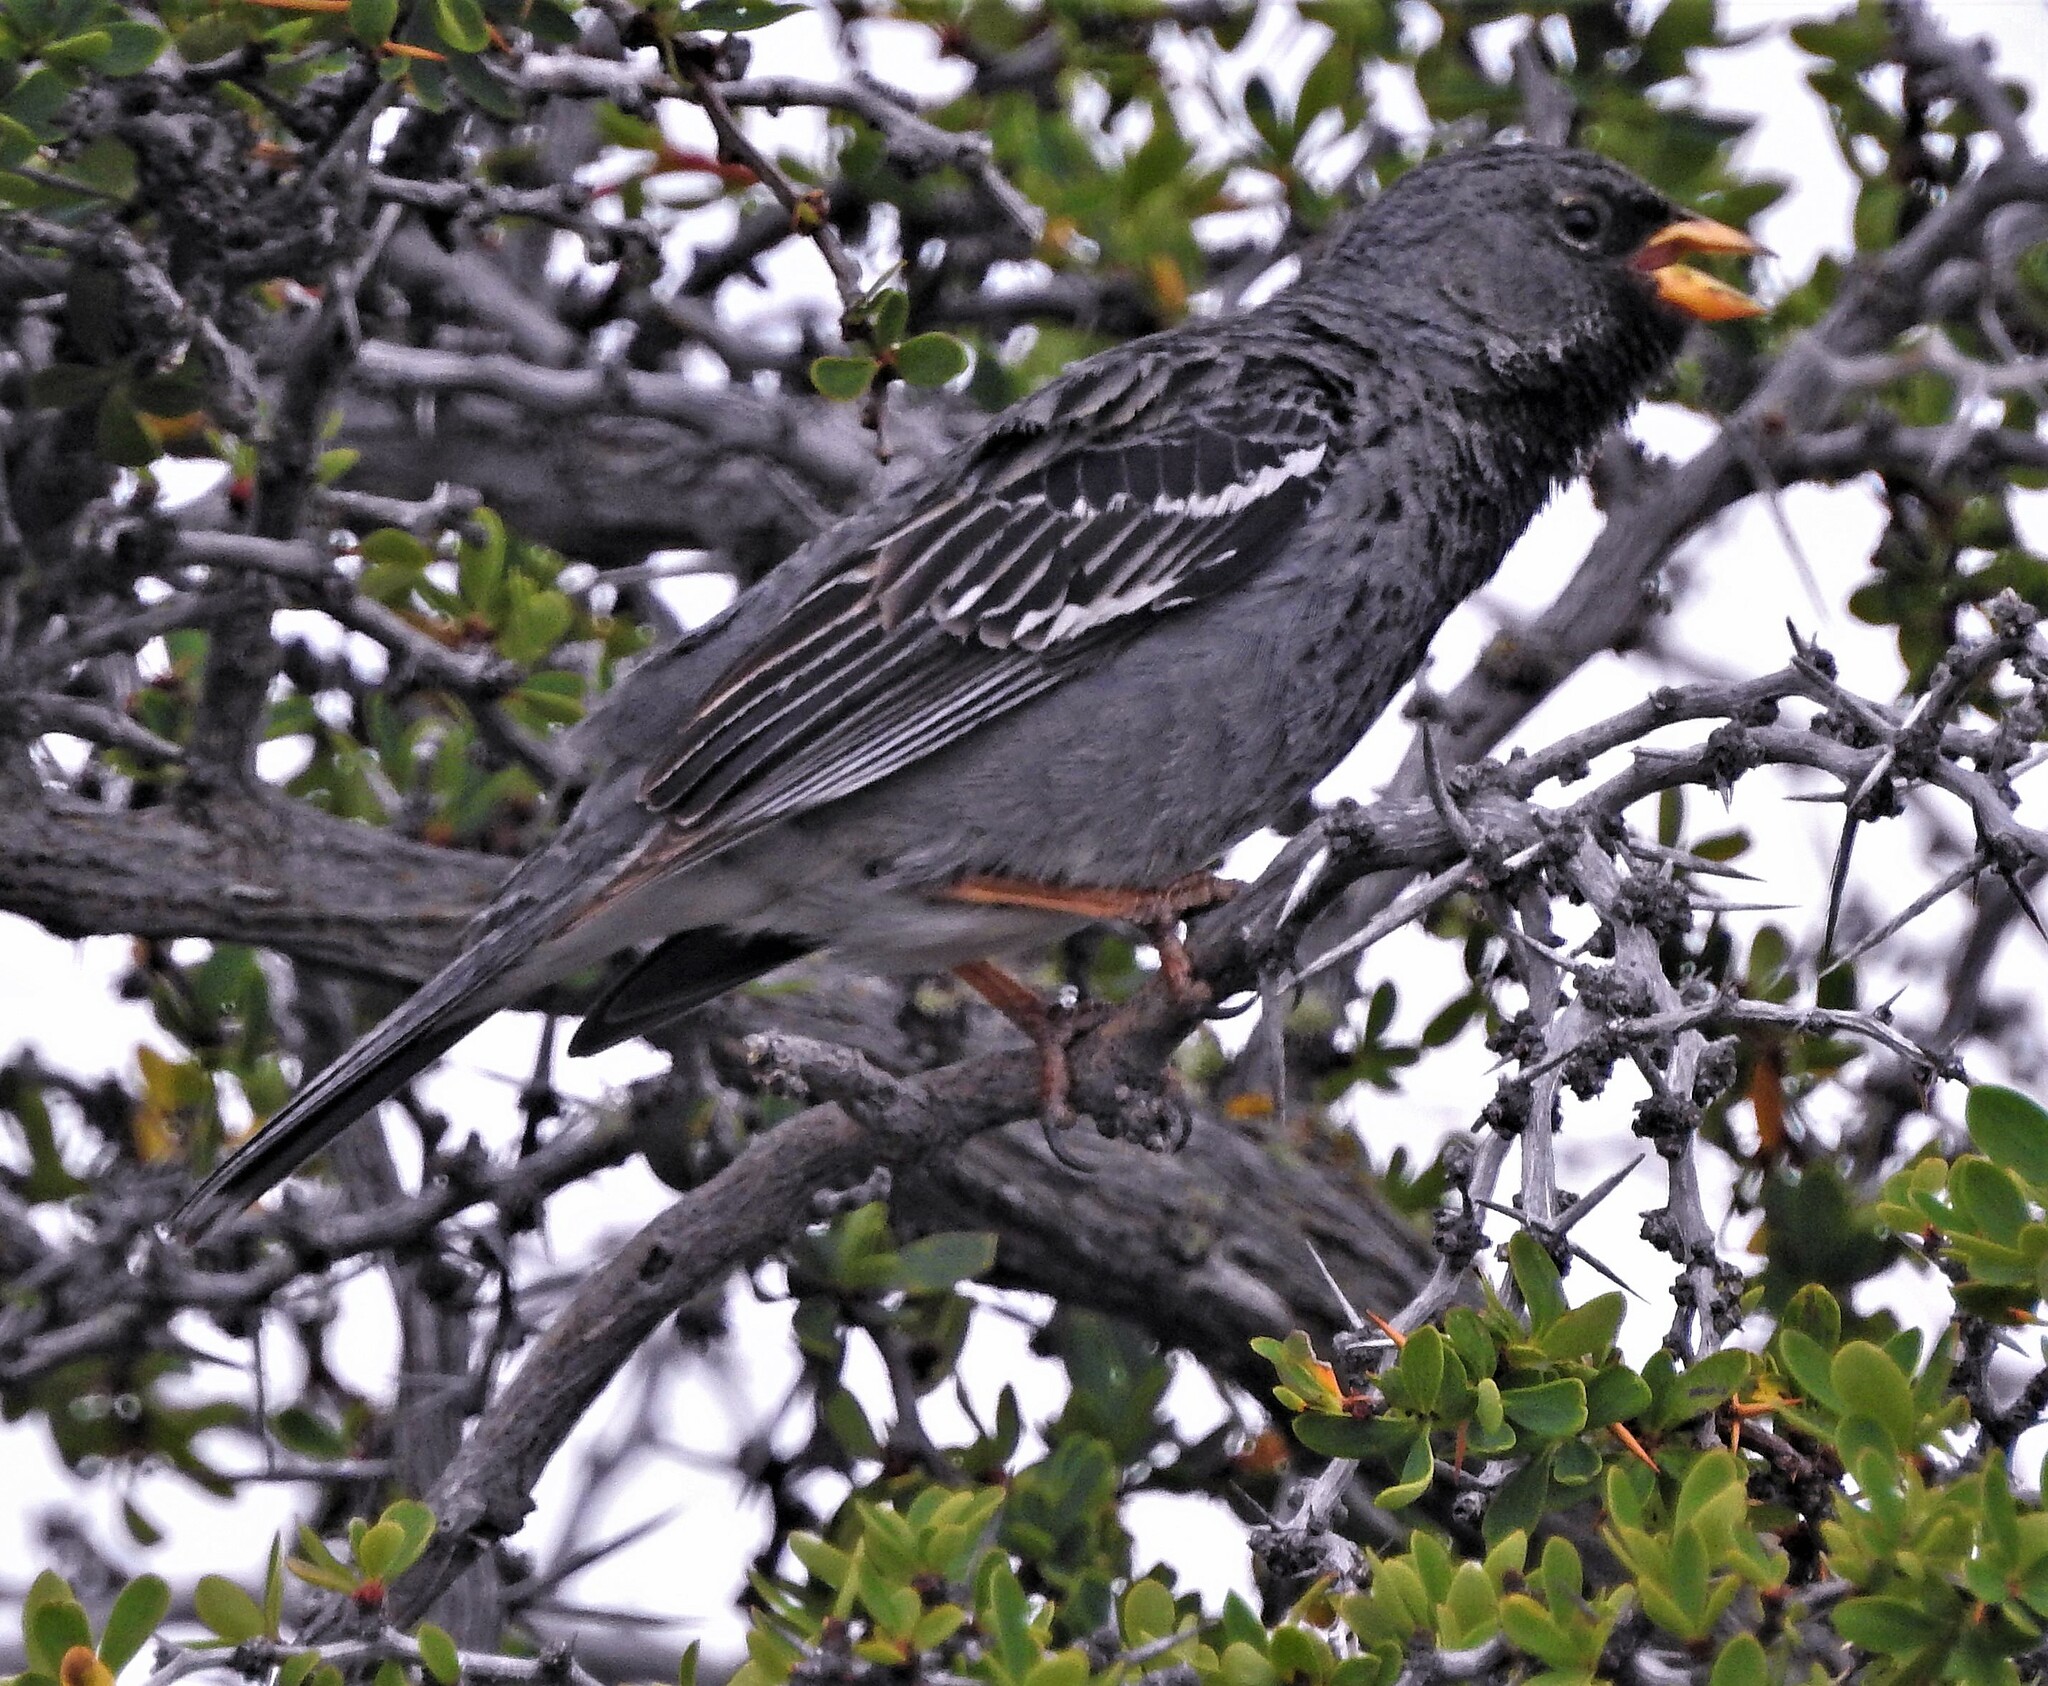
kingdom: Animalia
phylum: Chordata
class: Aves
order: Passeriformes
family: Thraupidae
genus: Rhopospina
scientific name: Rhopospina fruticeti
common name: Mourning sierra finch
